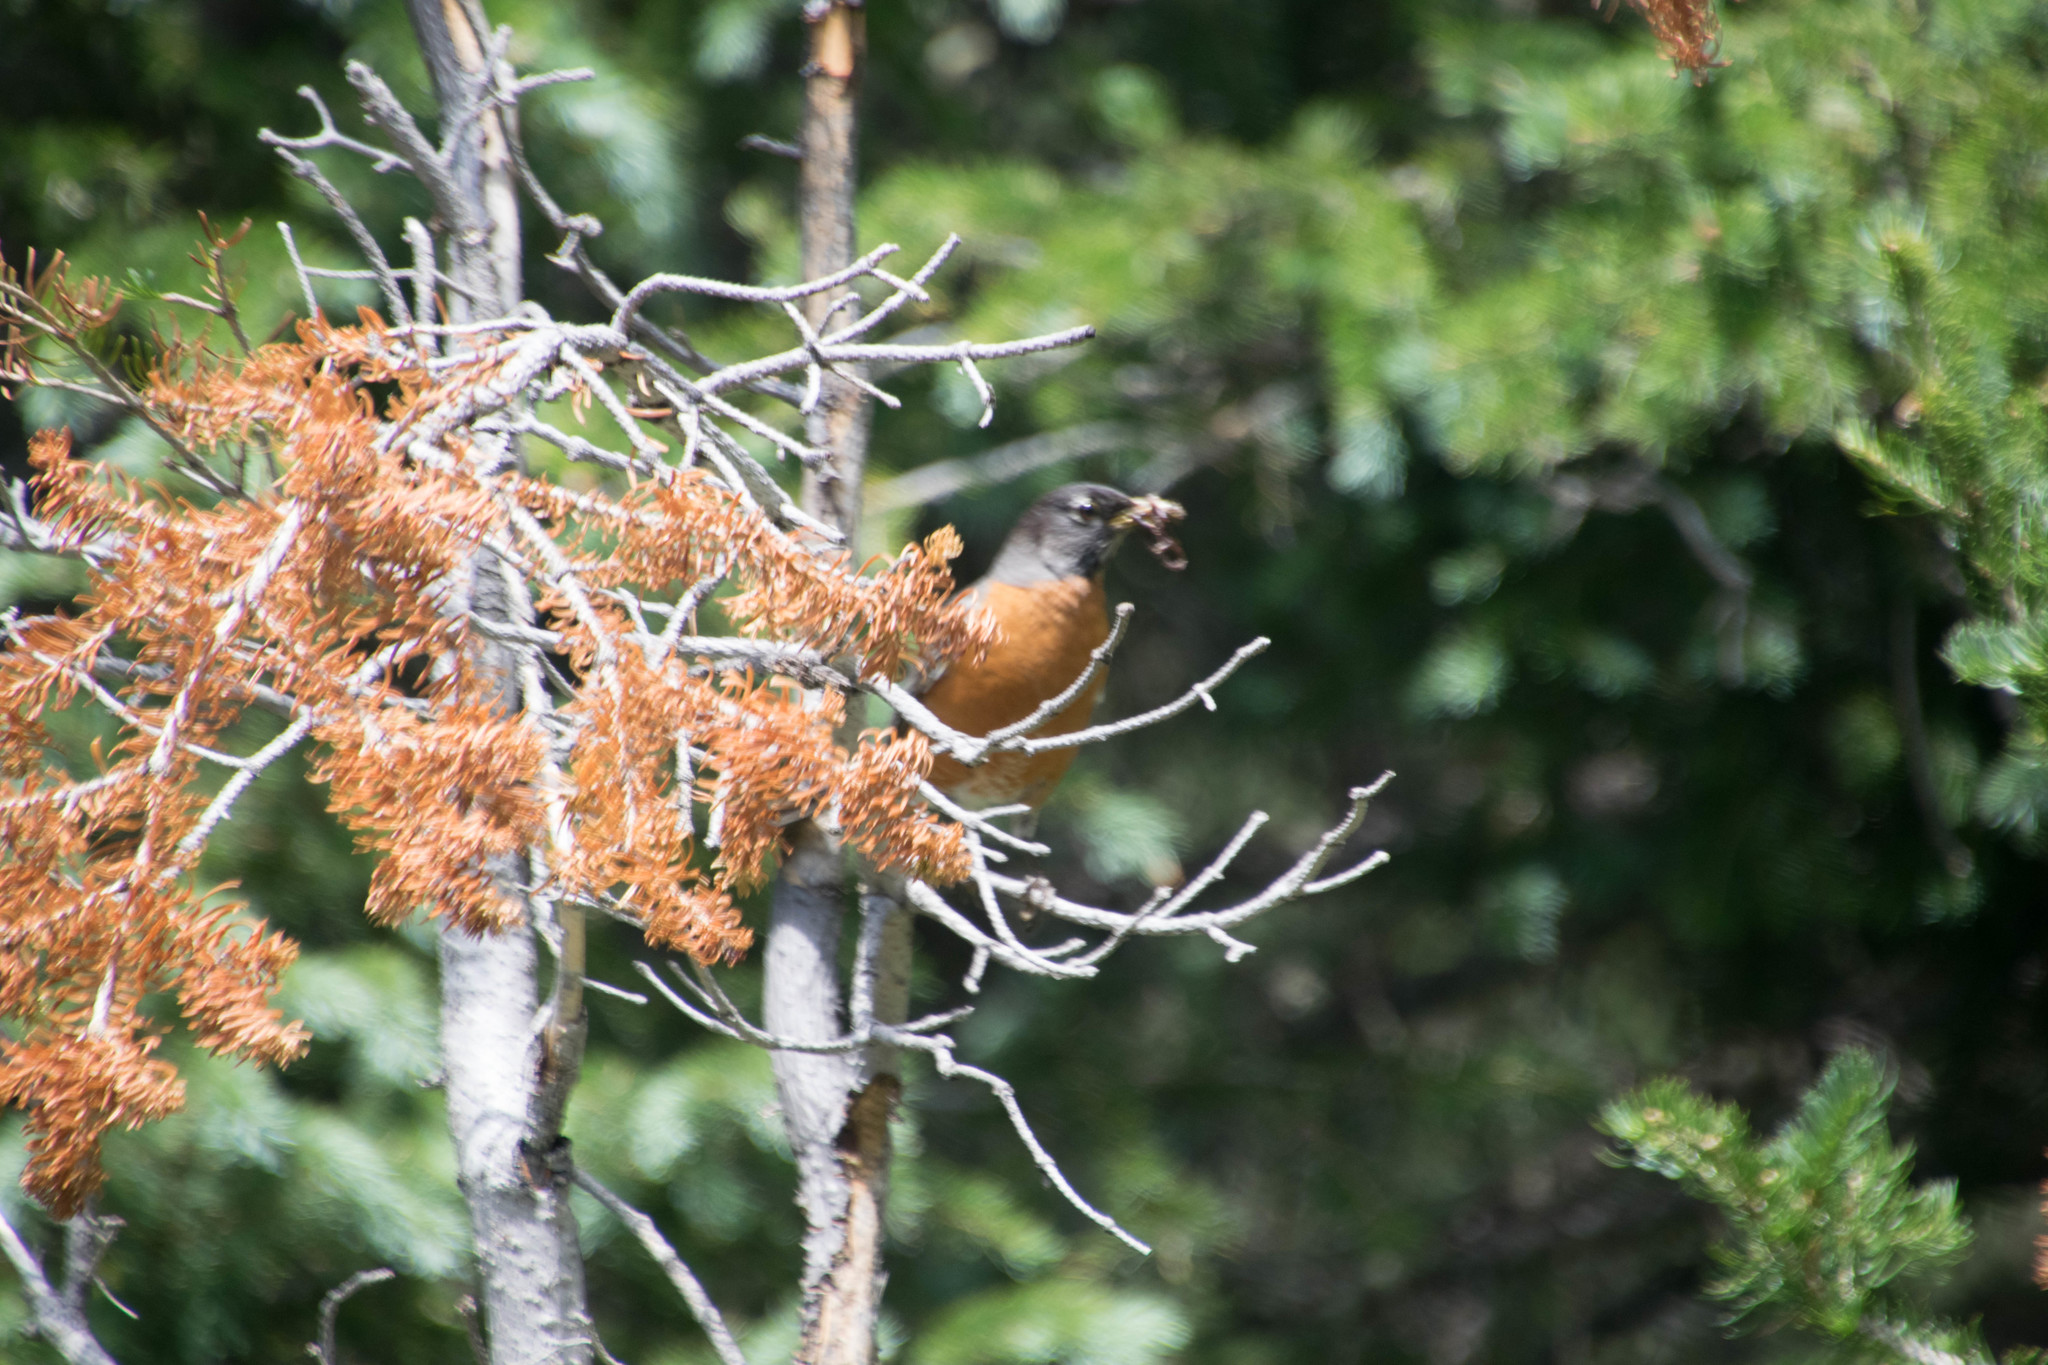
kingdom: Animalia
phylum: Chordata
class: Aves
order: Passeriformes
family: Turdidae
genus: Turdus
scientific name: Turdus migratorius
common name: American robin
